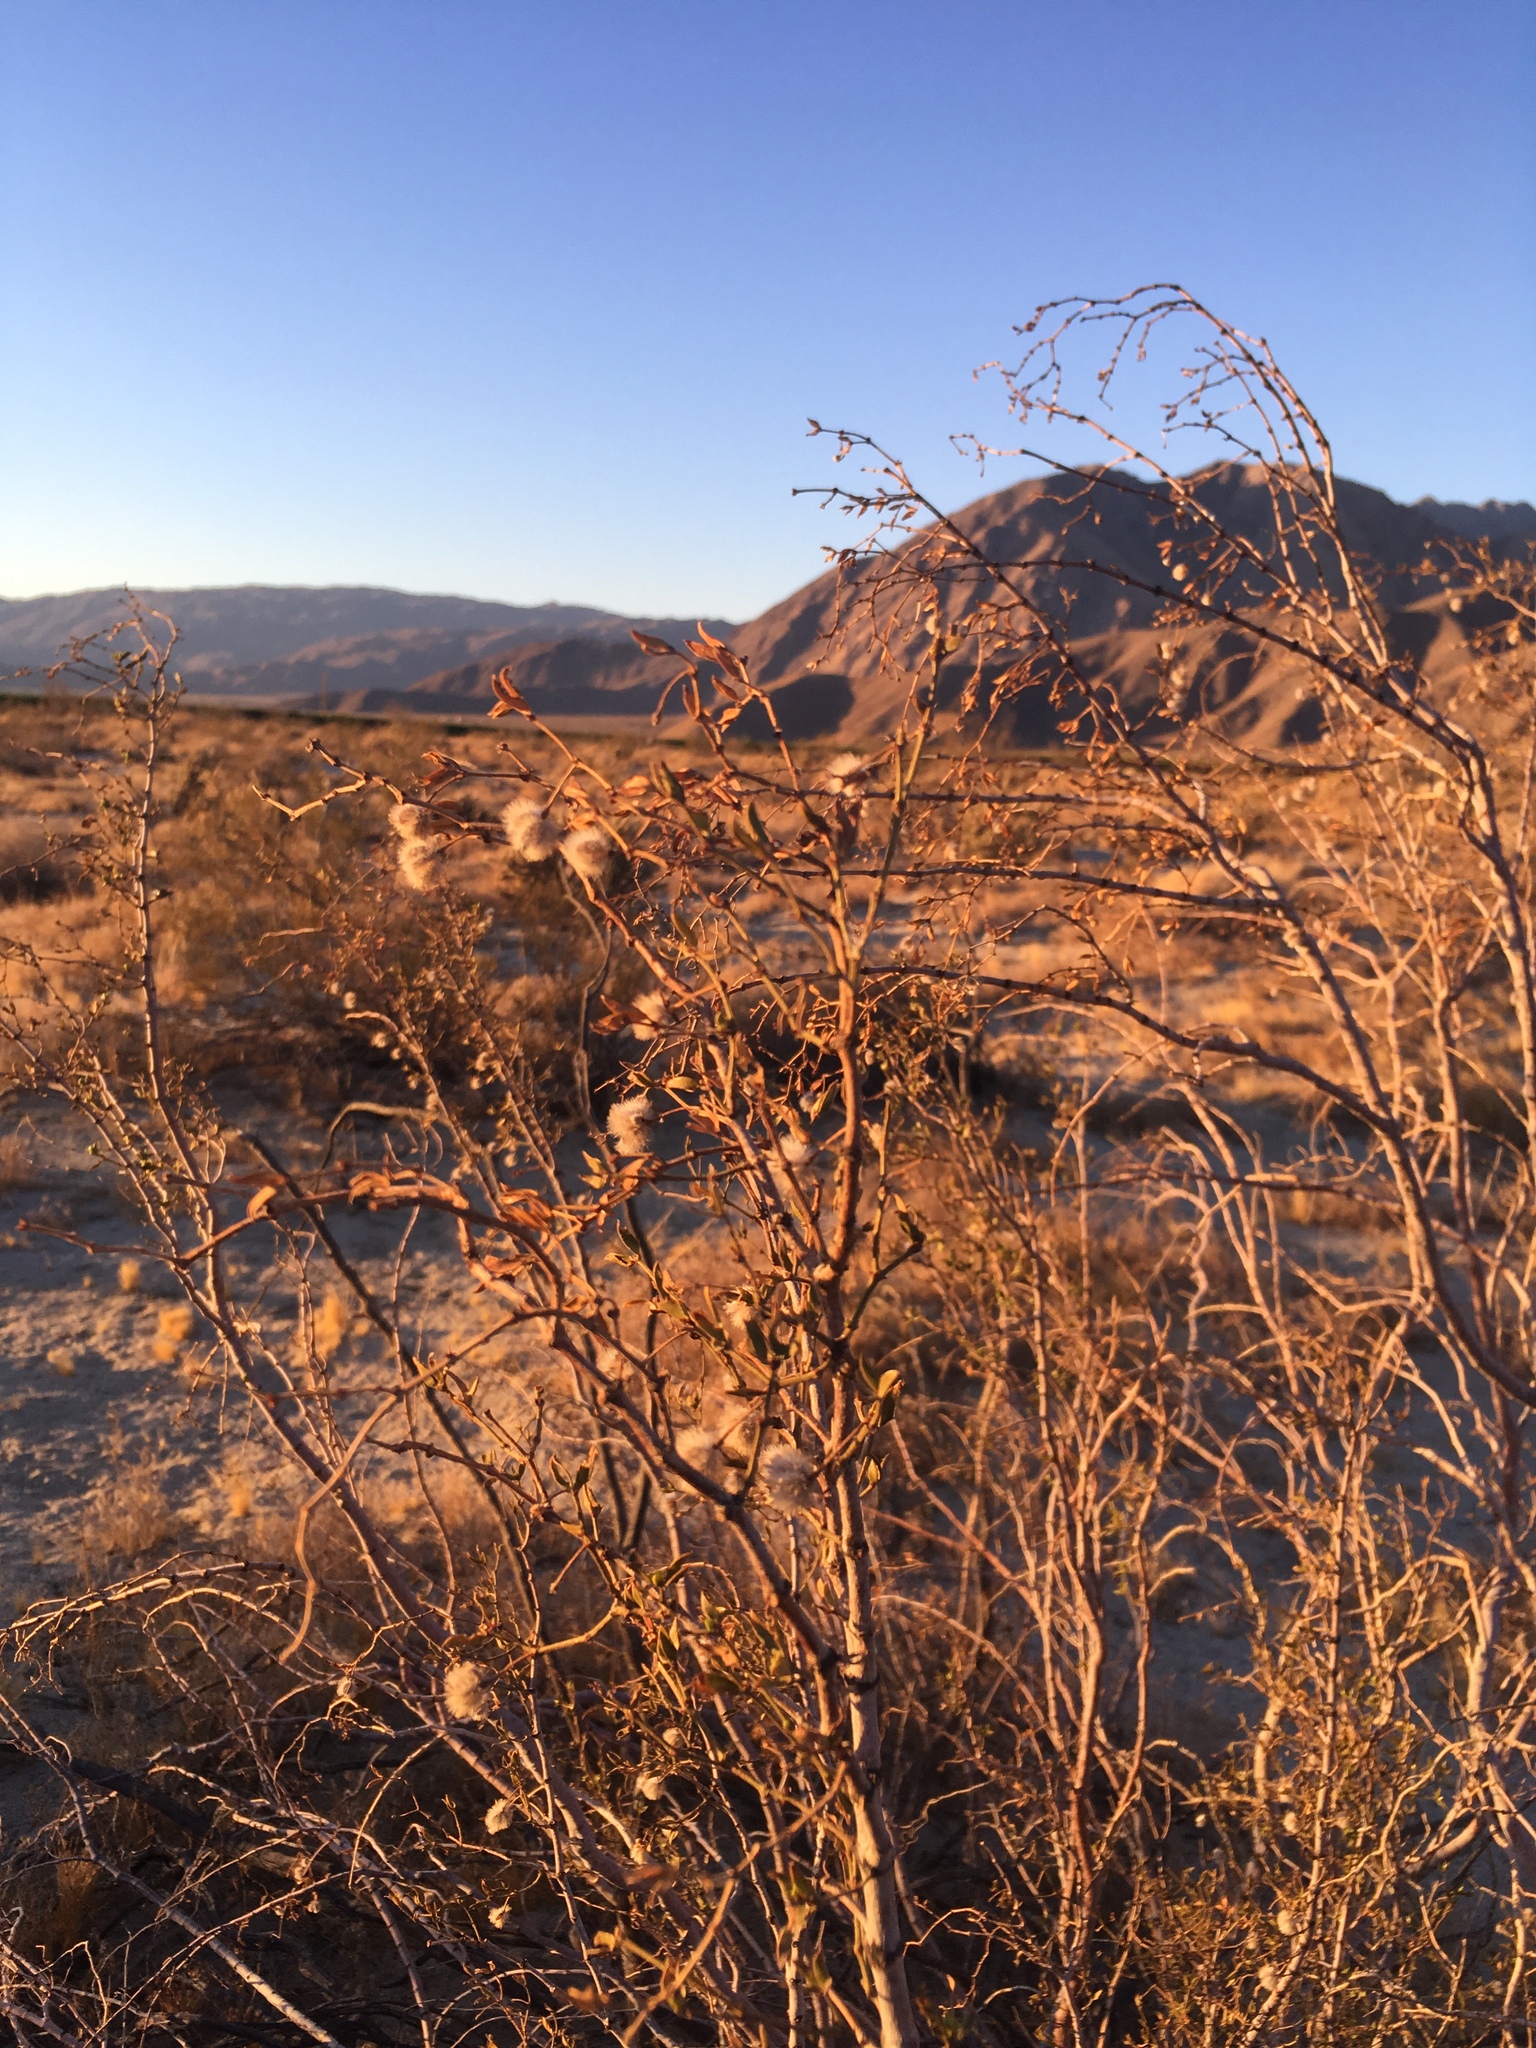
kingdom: Plantae
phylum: Tracheophyta
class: Magnoliopsida
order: Zygophyllales
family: Zygophyllaceae
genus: Larrea
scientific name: Larrea tridentata
